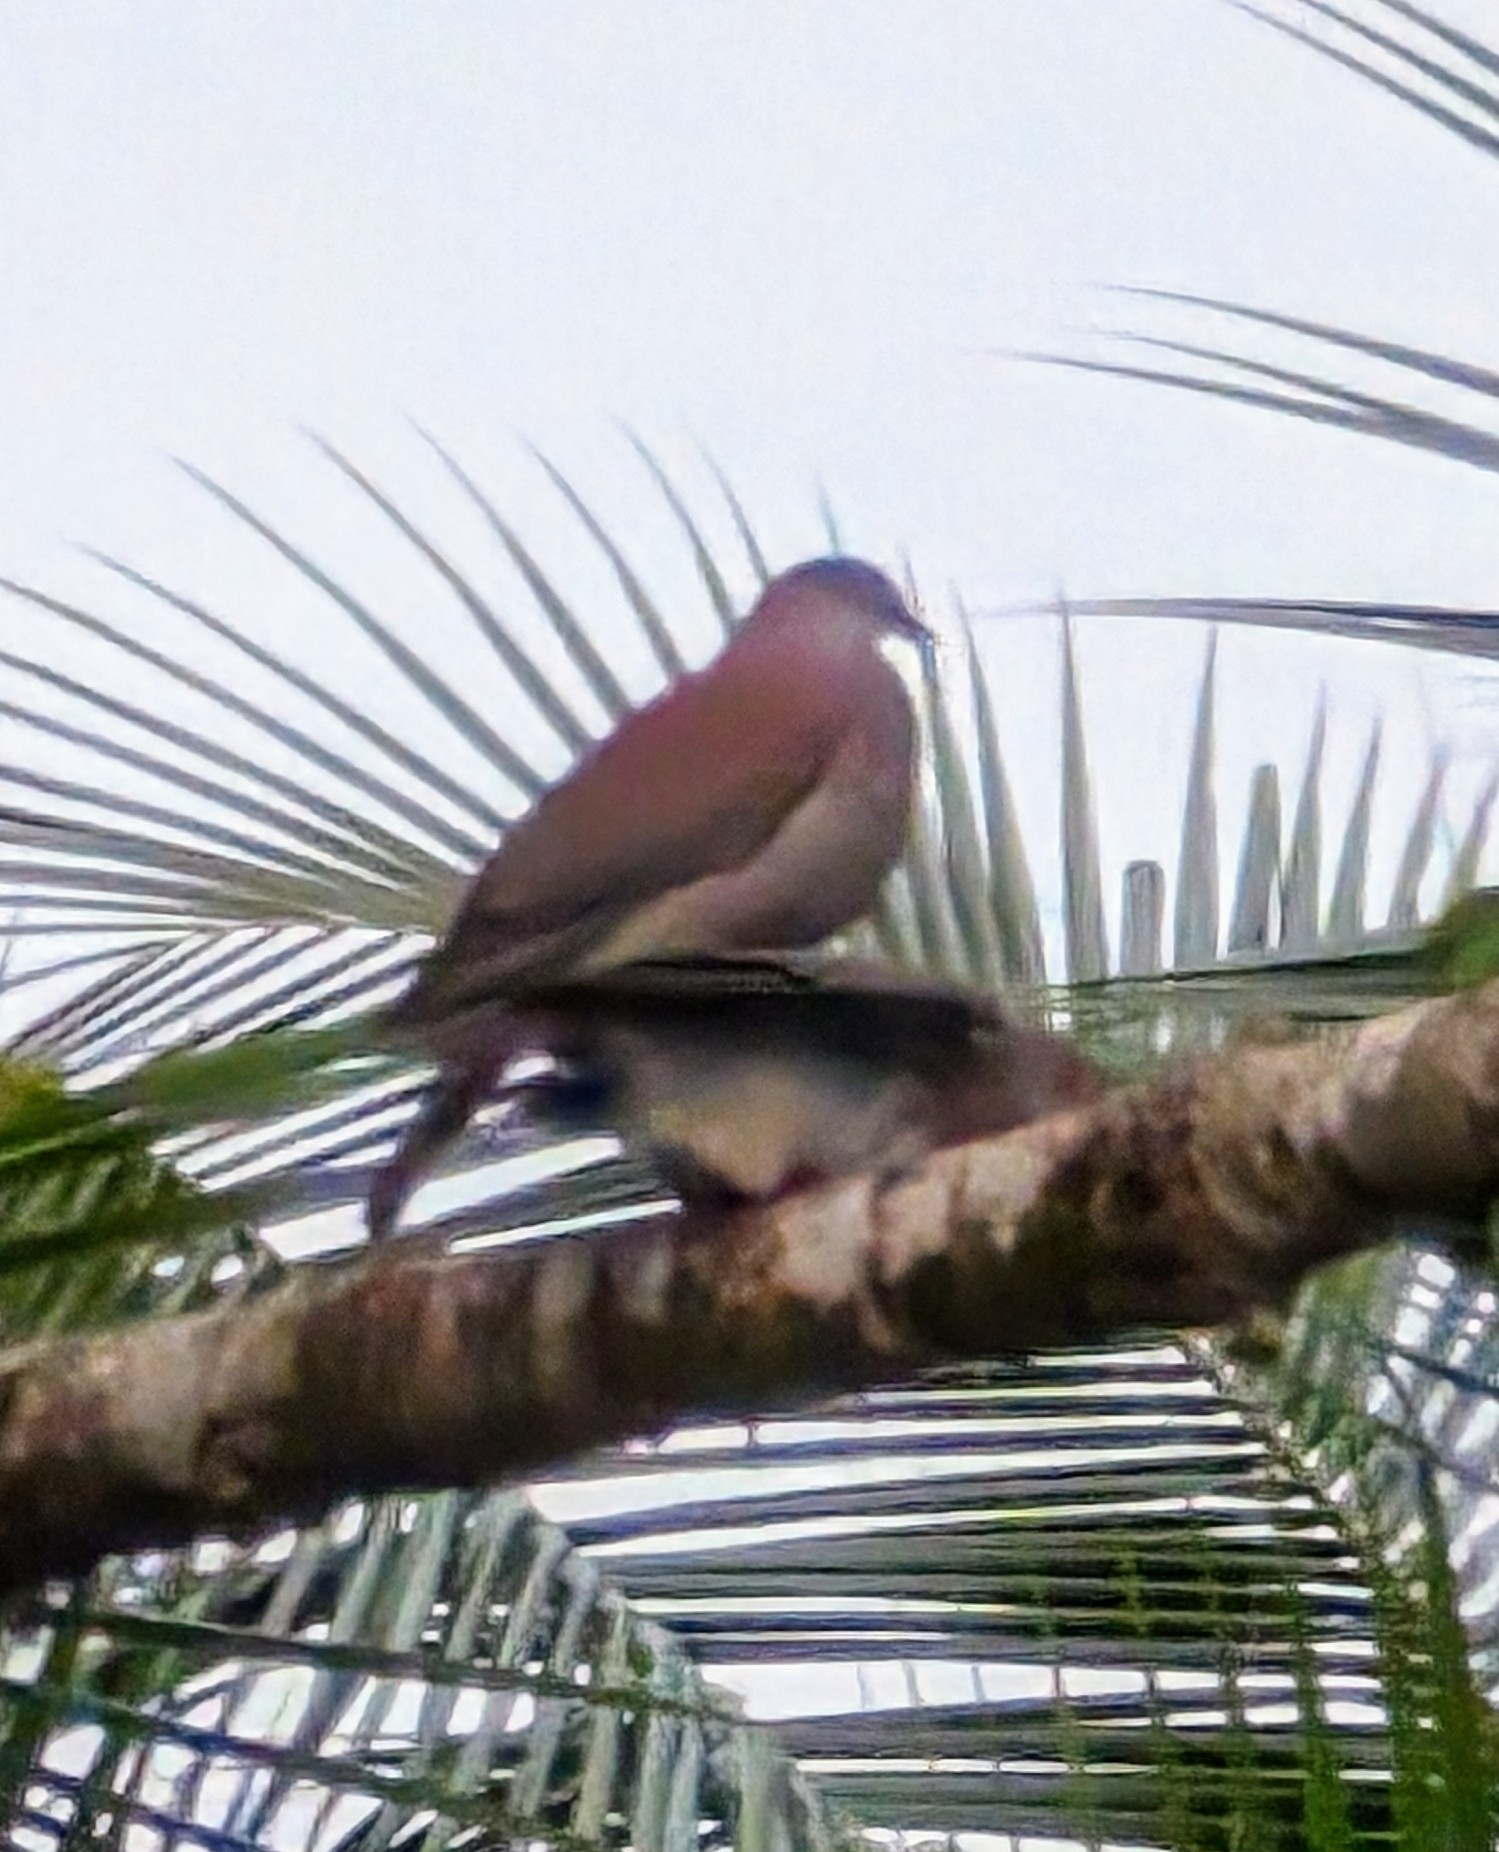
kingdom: Animalia
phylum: Chordata
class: Aves
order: Columbiformes
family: Columbidae
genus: Patagioenas
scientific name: Patagioenas cayennensis
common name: Pale-vented pigeon
